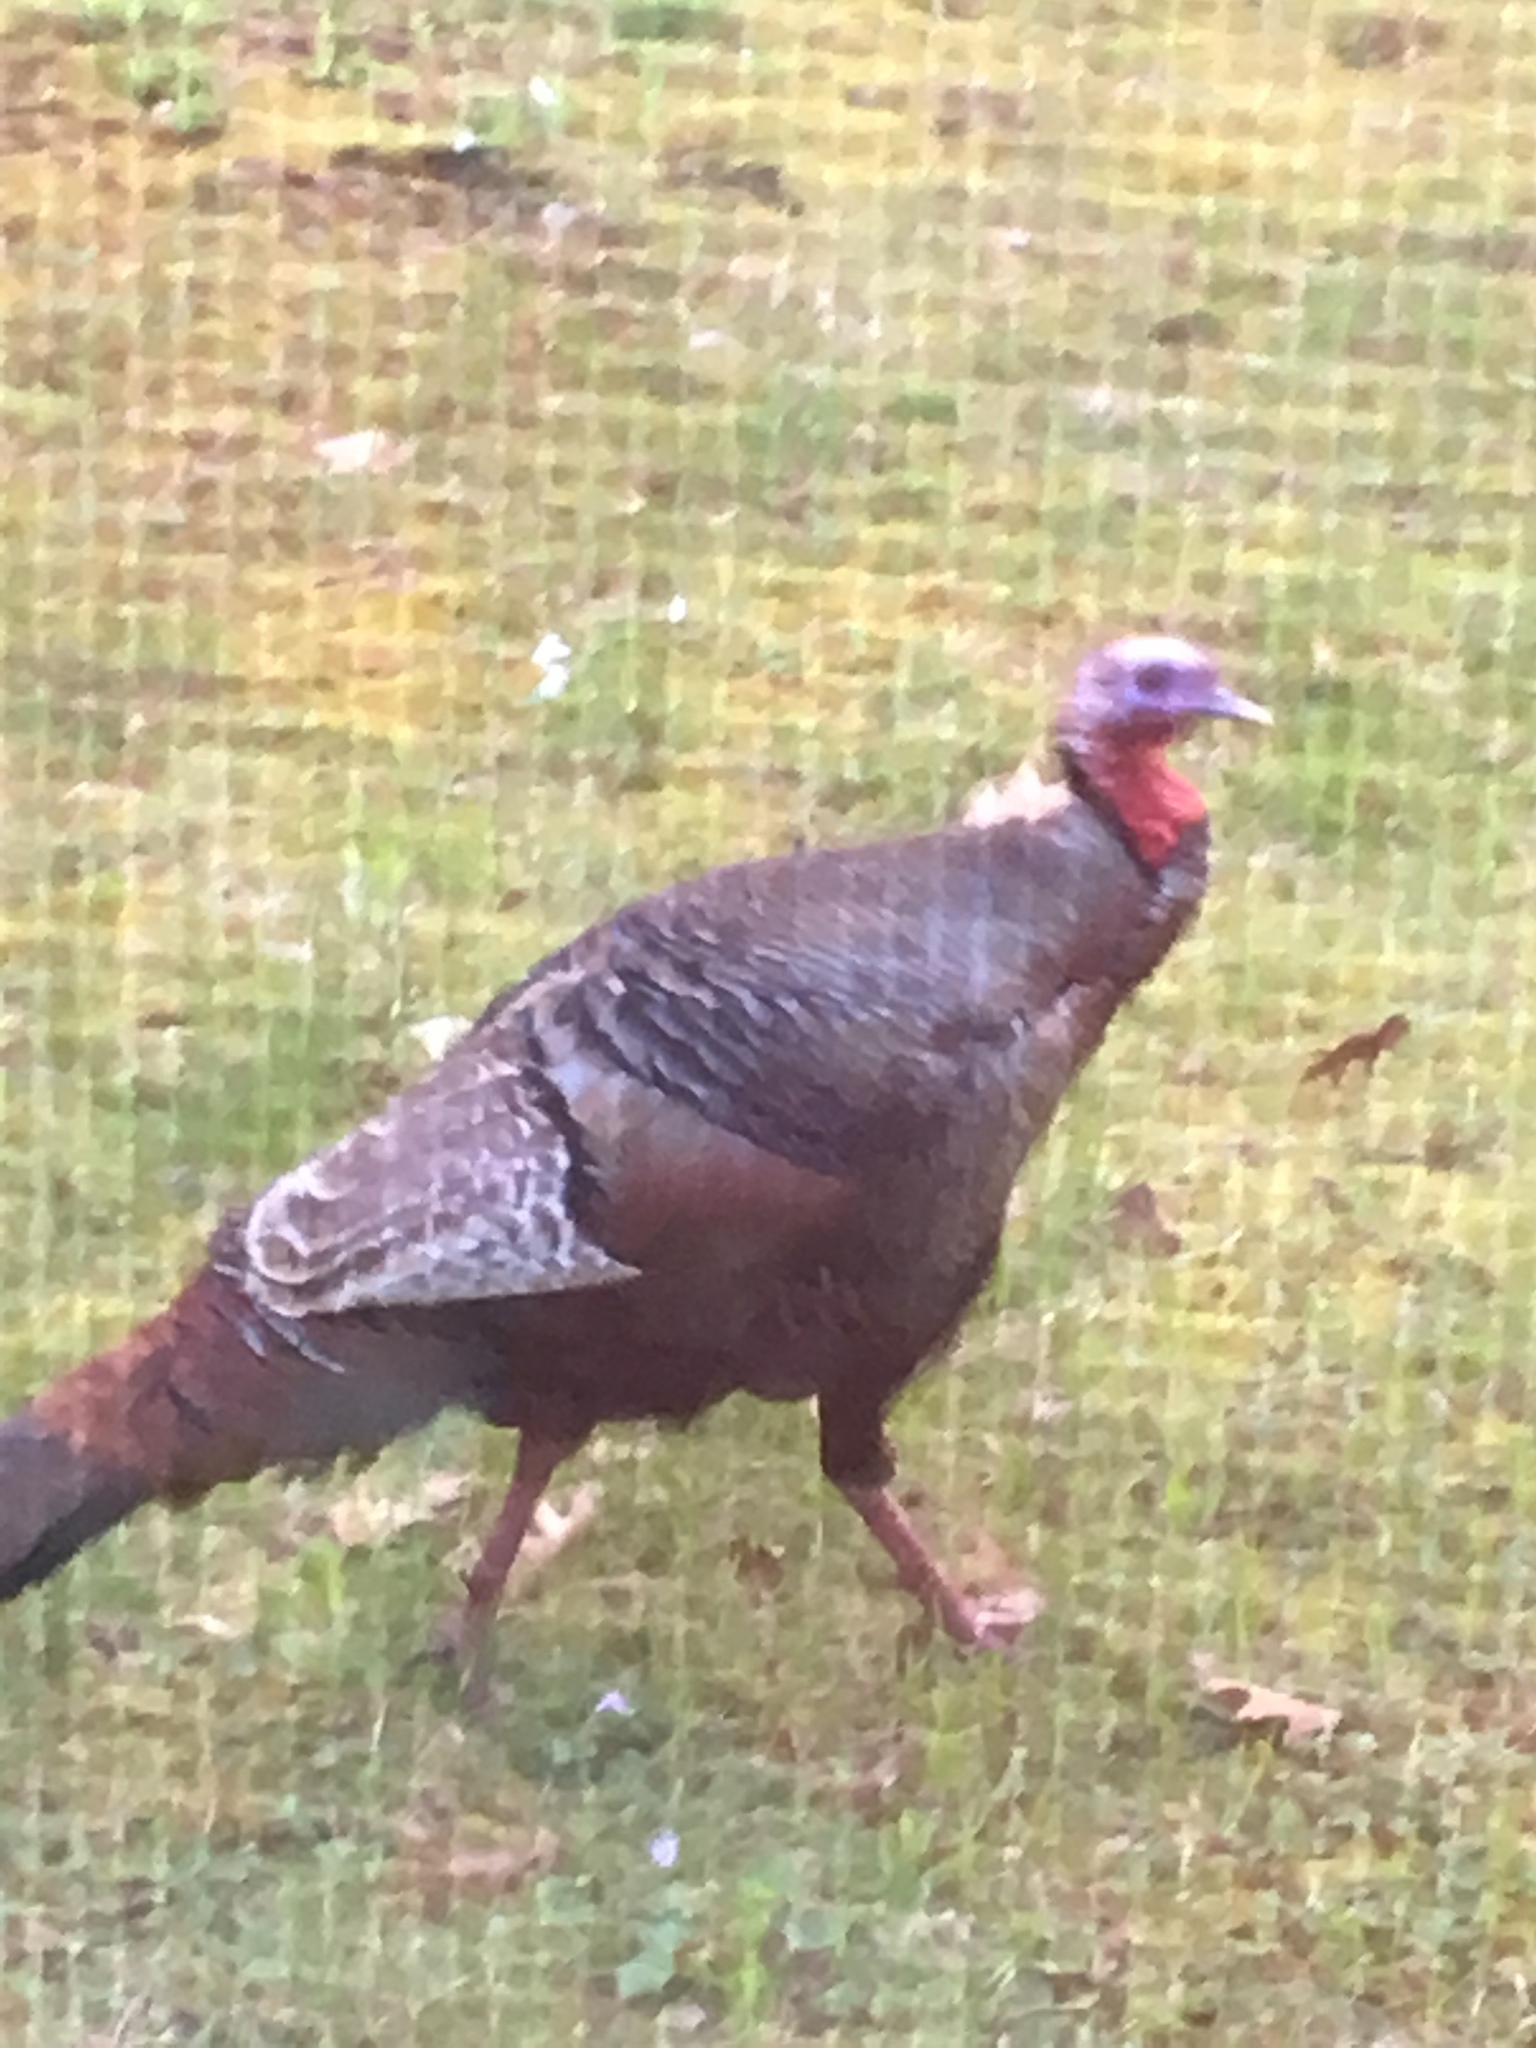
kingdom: Animalia
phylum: Chordata
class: Aves
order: Galliformes
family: Phasianidae
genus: Meleagris
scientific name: Meleagris gallopavo
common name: Wild turkey
